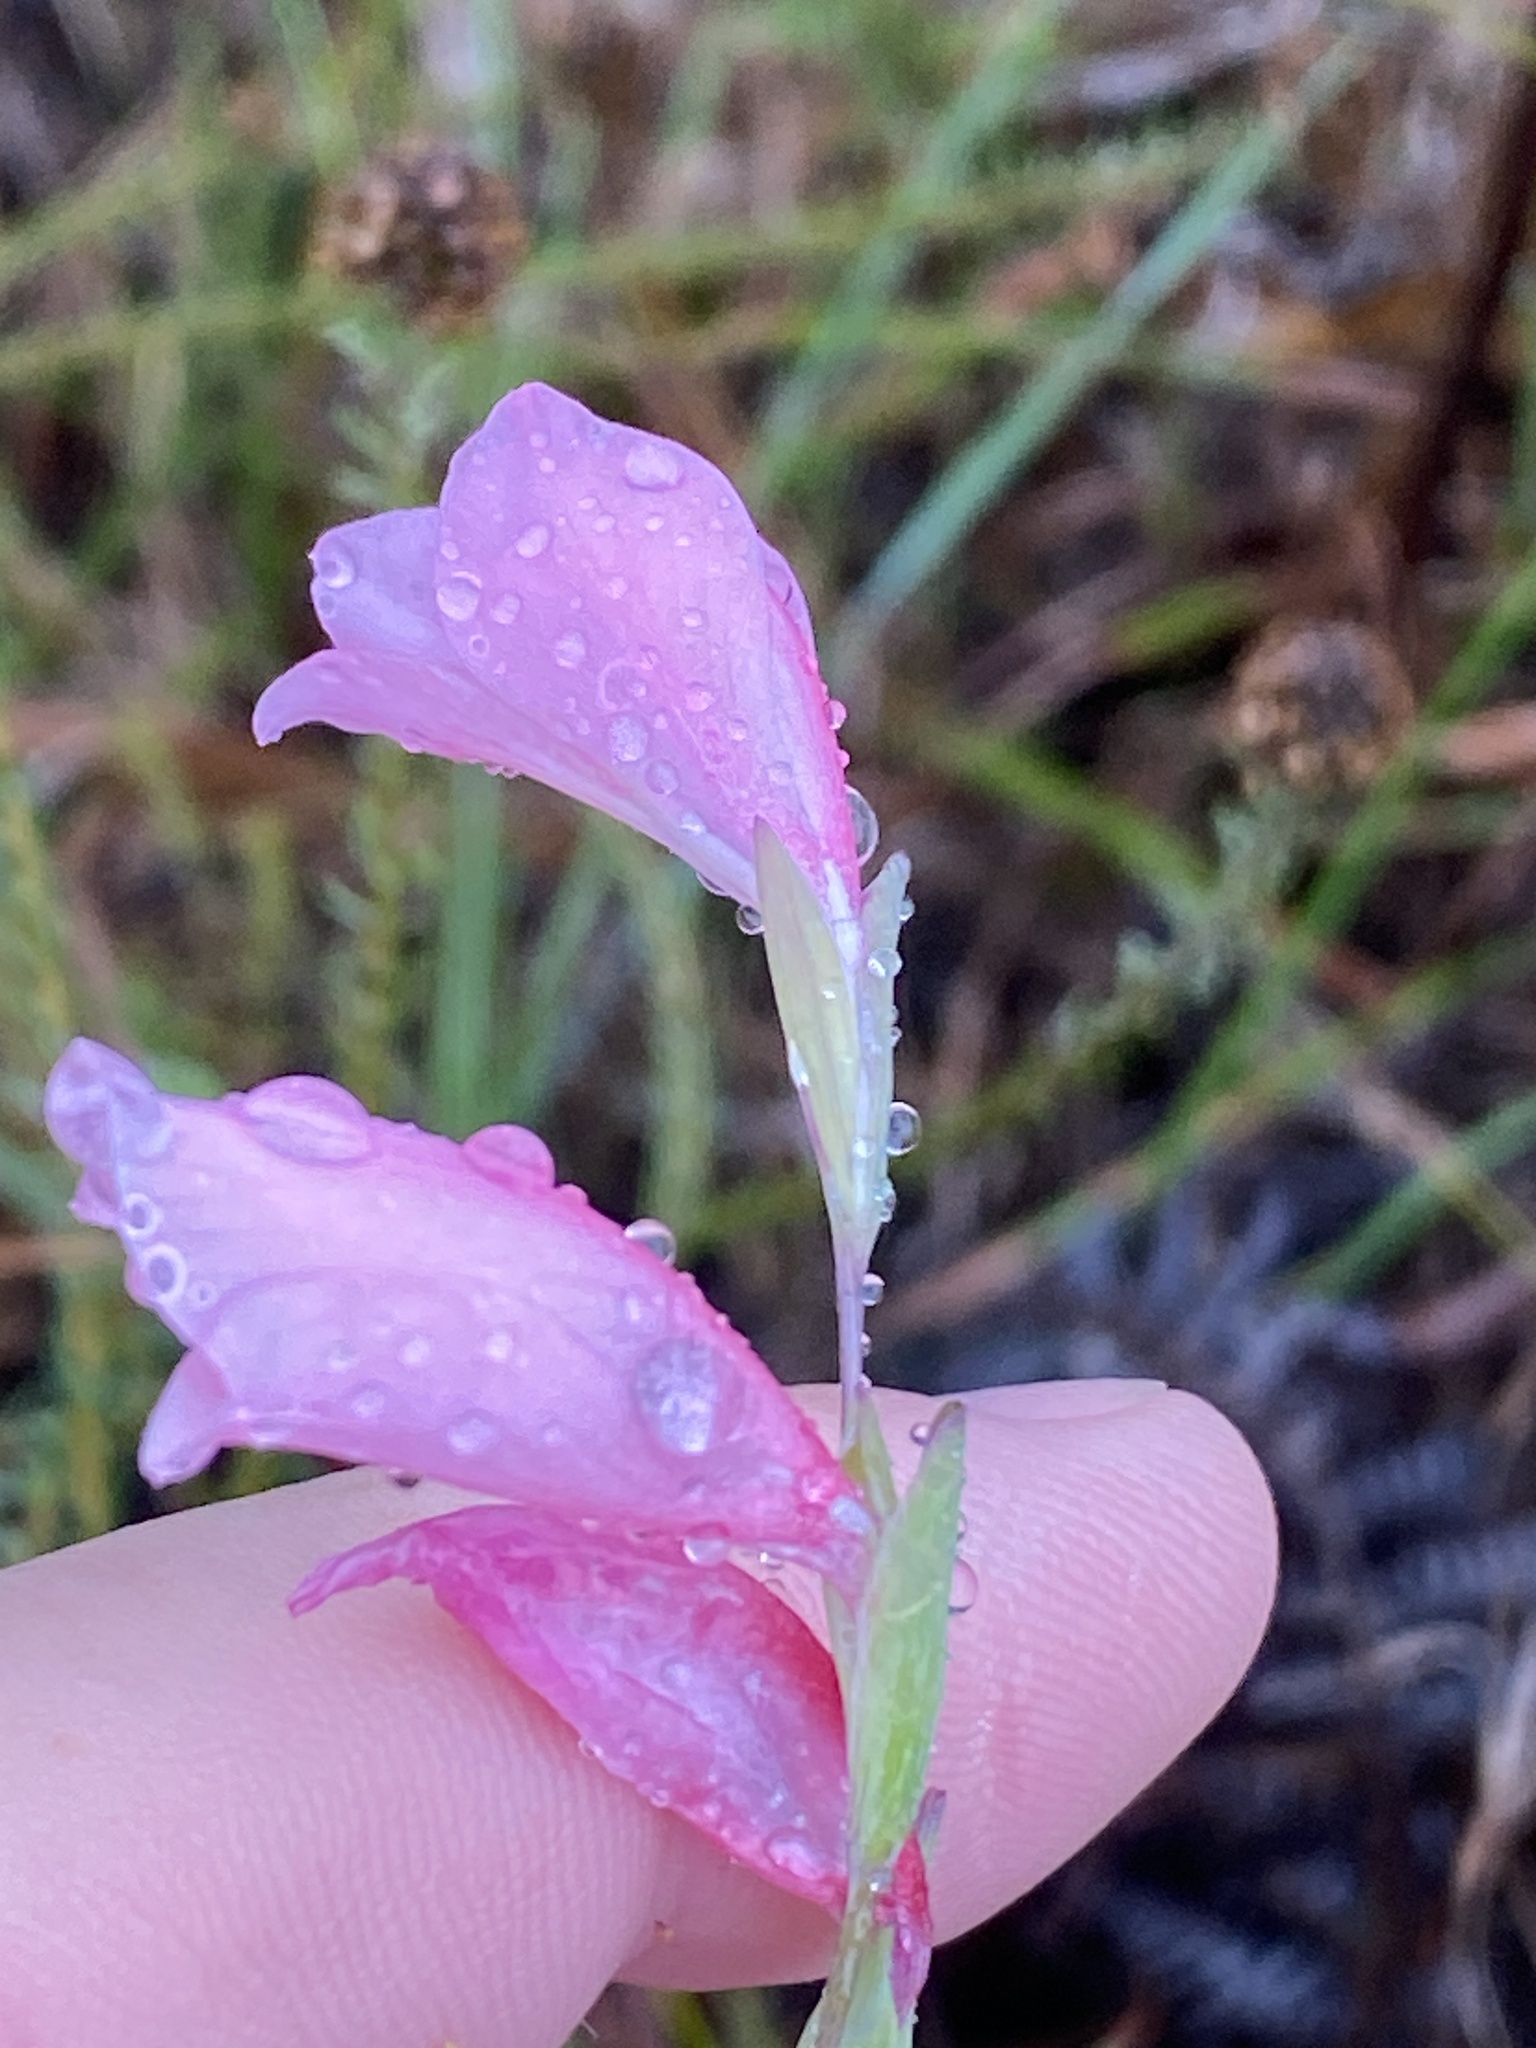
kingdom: Plantae
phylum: Tracheophyta
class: Liliopsida
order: Asparagales
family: Iridaceae
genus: Gladiolus
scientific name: Gladiolus brevifolius
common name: March pypie
